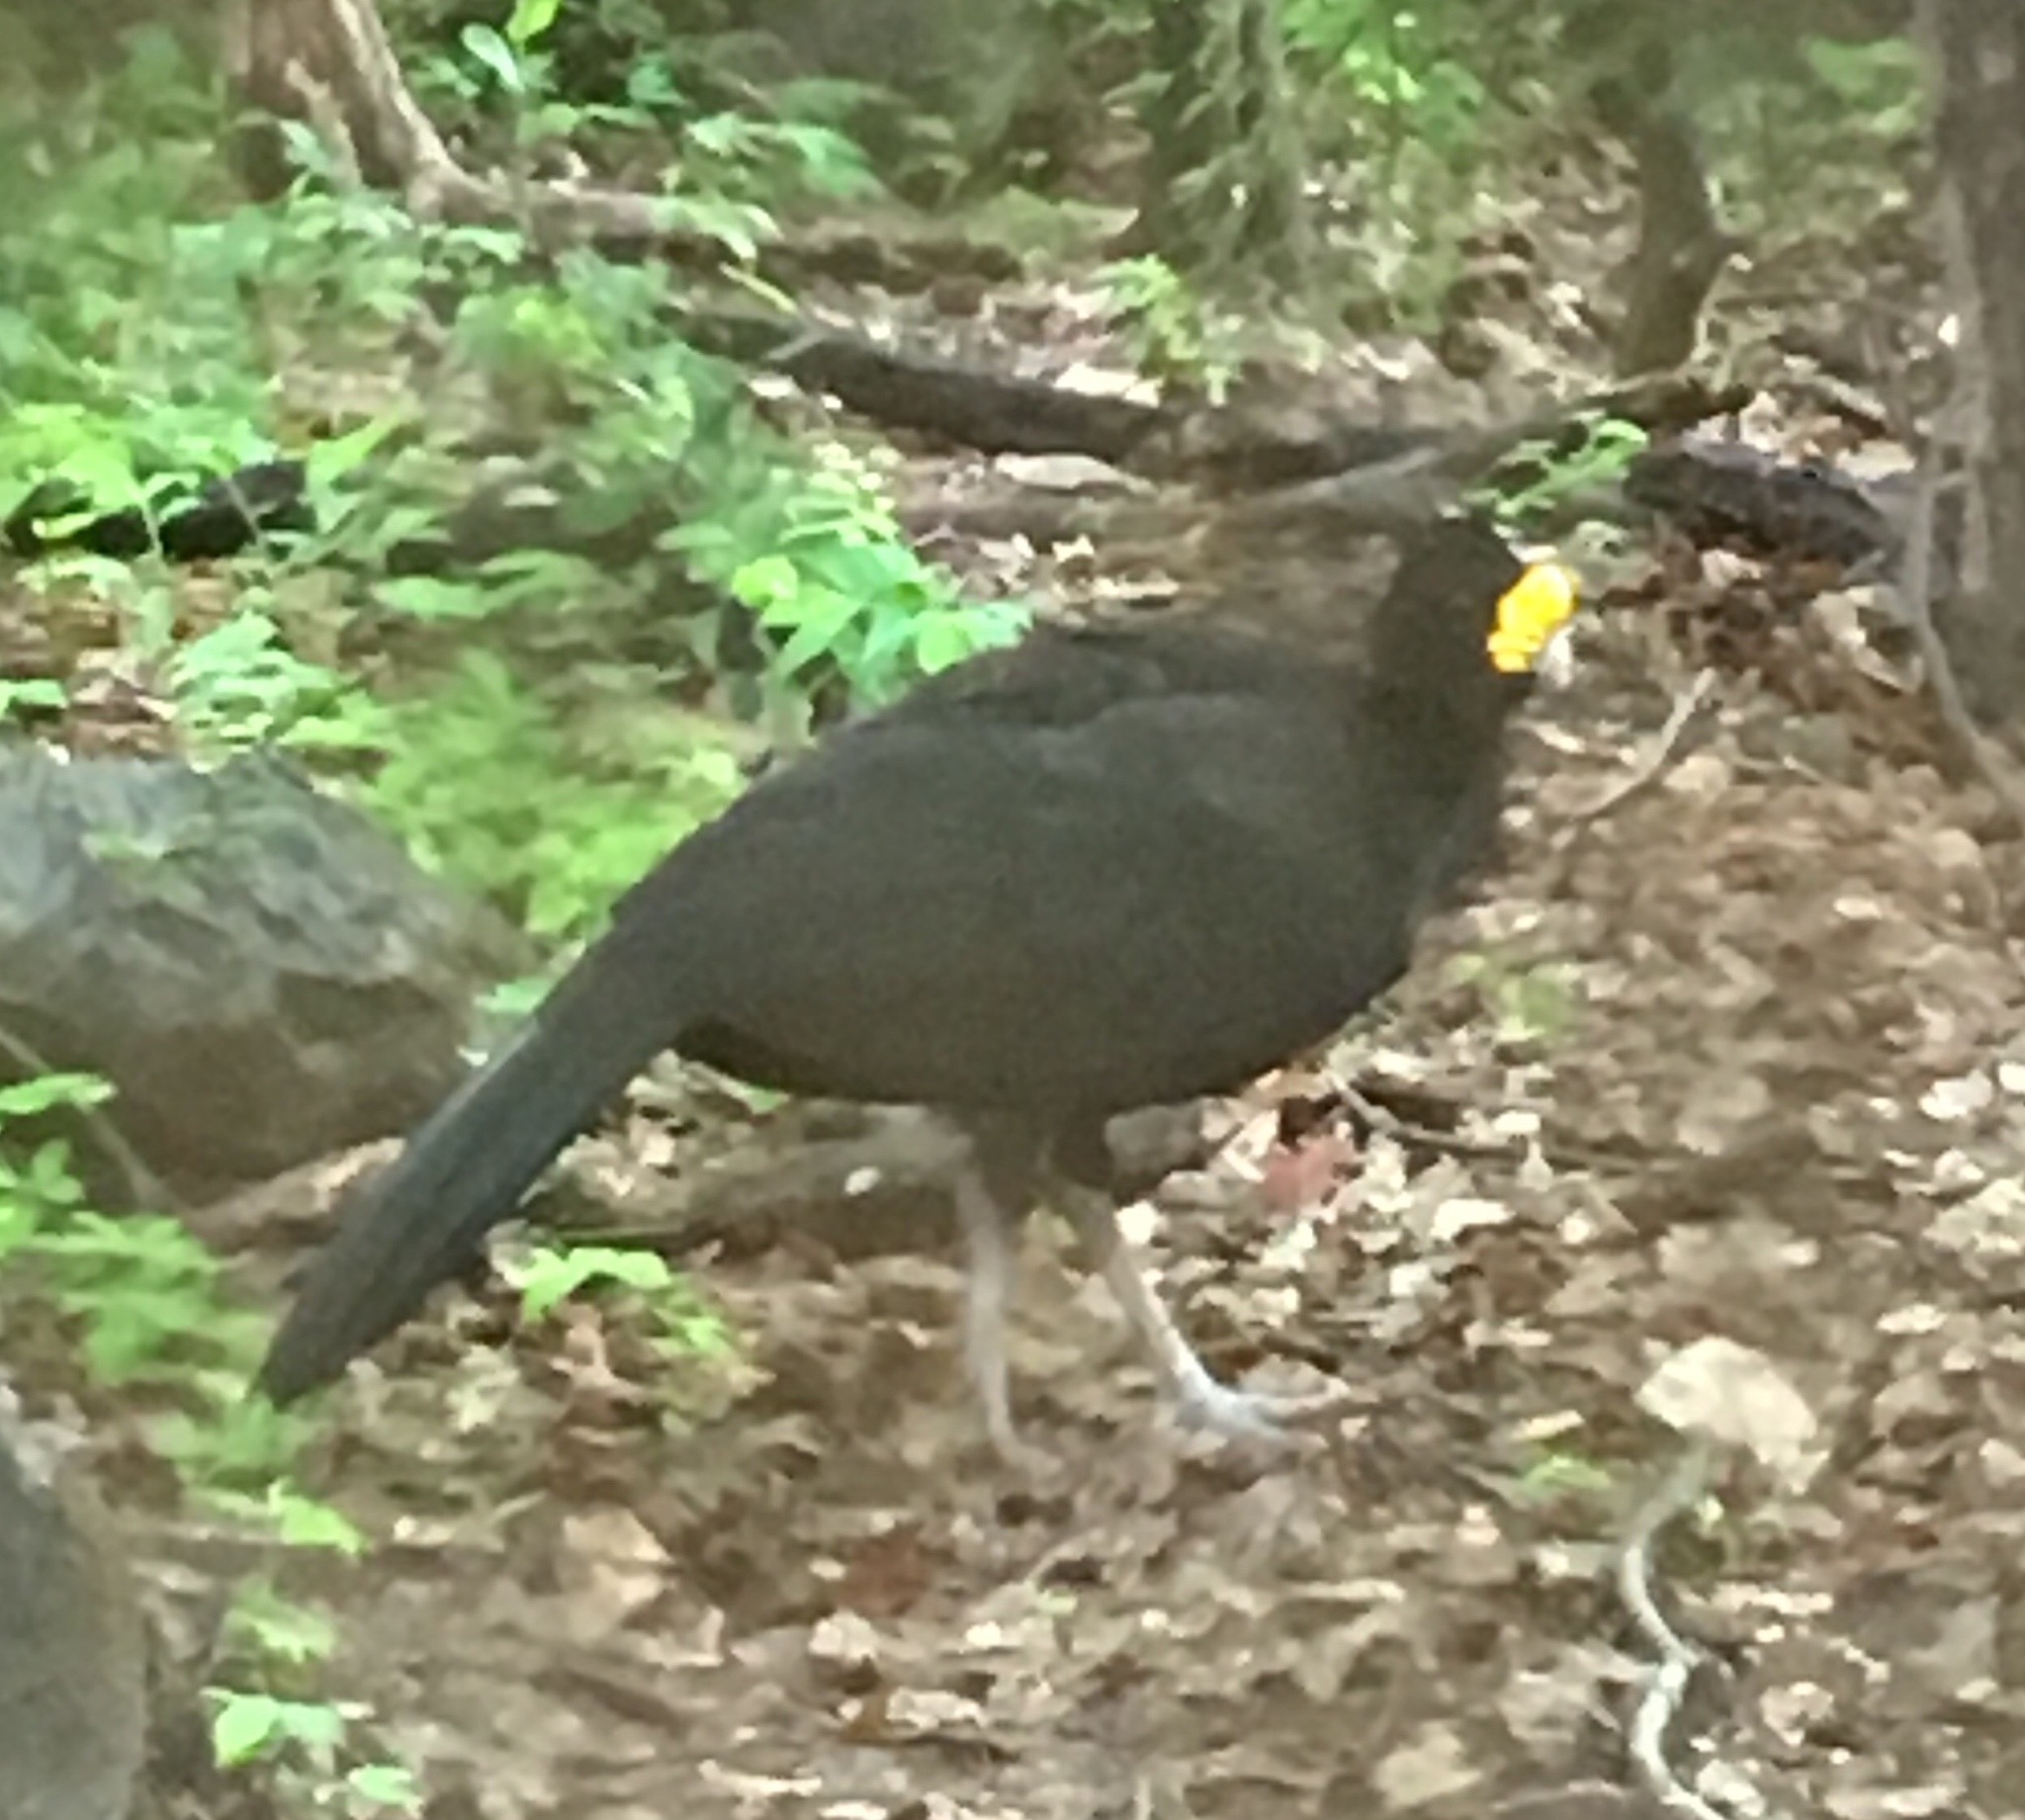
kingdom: Animalia
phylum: Chordata
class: Aves
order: Galliformes
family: Cracidae
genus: Crax
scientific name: Crax rubra
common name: Great curassow
